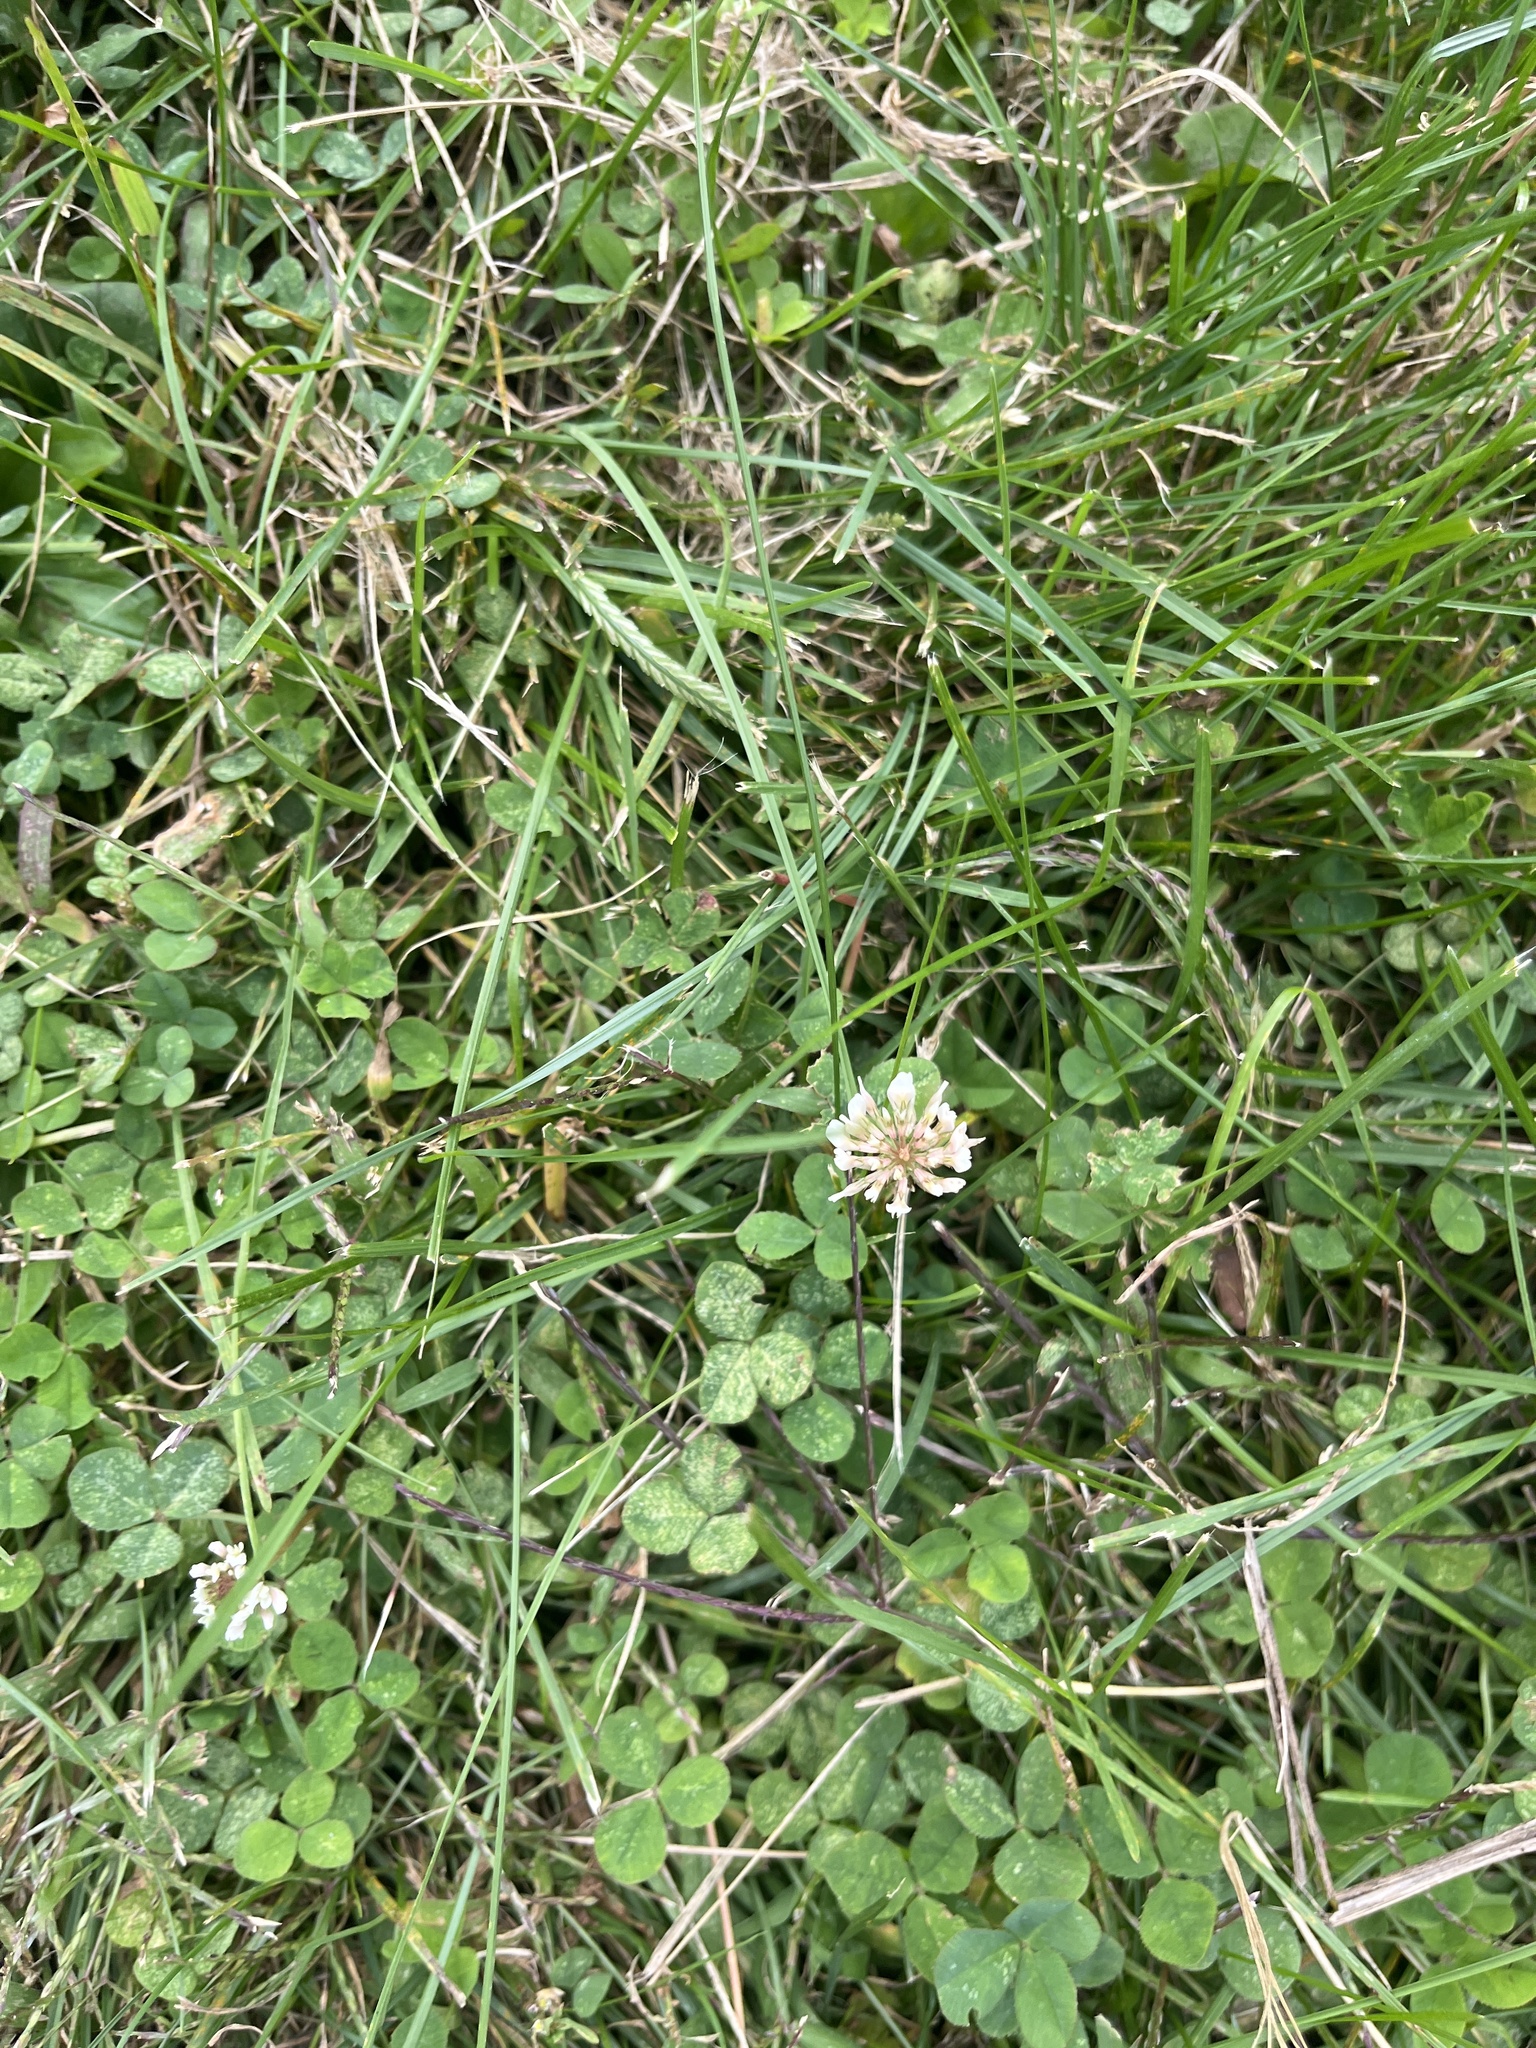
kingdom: Plantae
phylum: Tracheophyta
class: Magnoliopsida
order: Fabales
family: Fabaceae
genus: Trifolium
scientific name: Trifolium repens
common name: White clover
